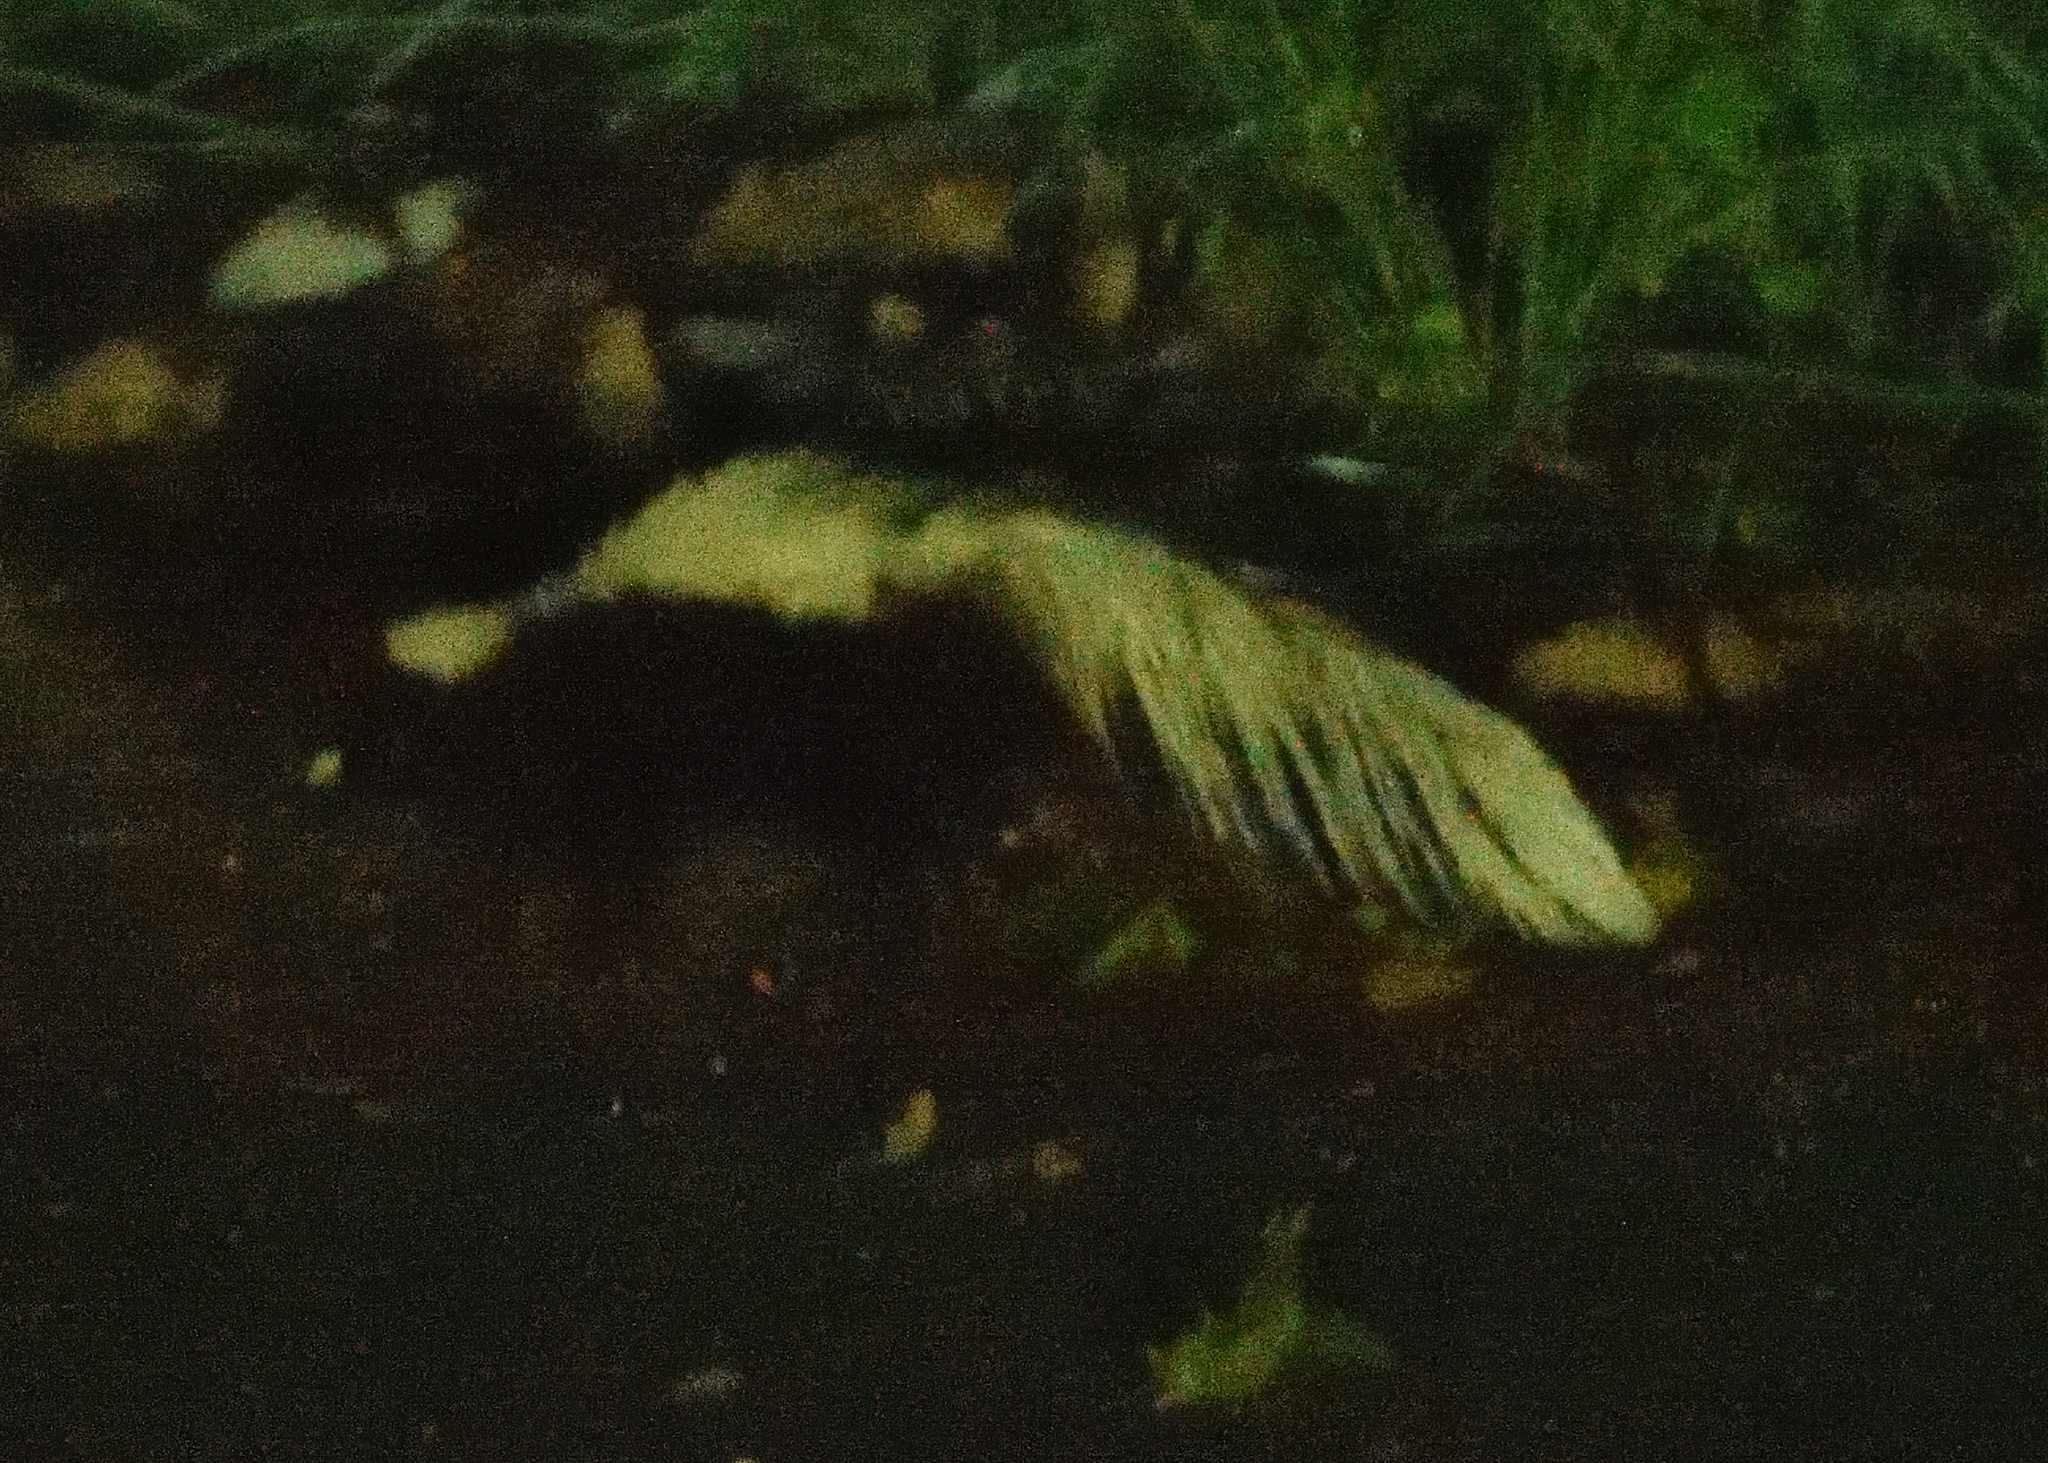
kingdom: Animalia
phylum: Chordata
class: Mammalia
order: Carnivora
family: Mephitidae
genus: Mephitis
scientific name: Mephitis mephitis
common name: Striped skunk
